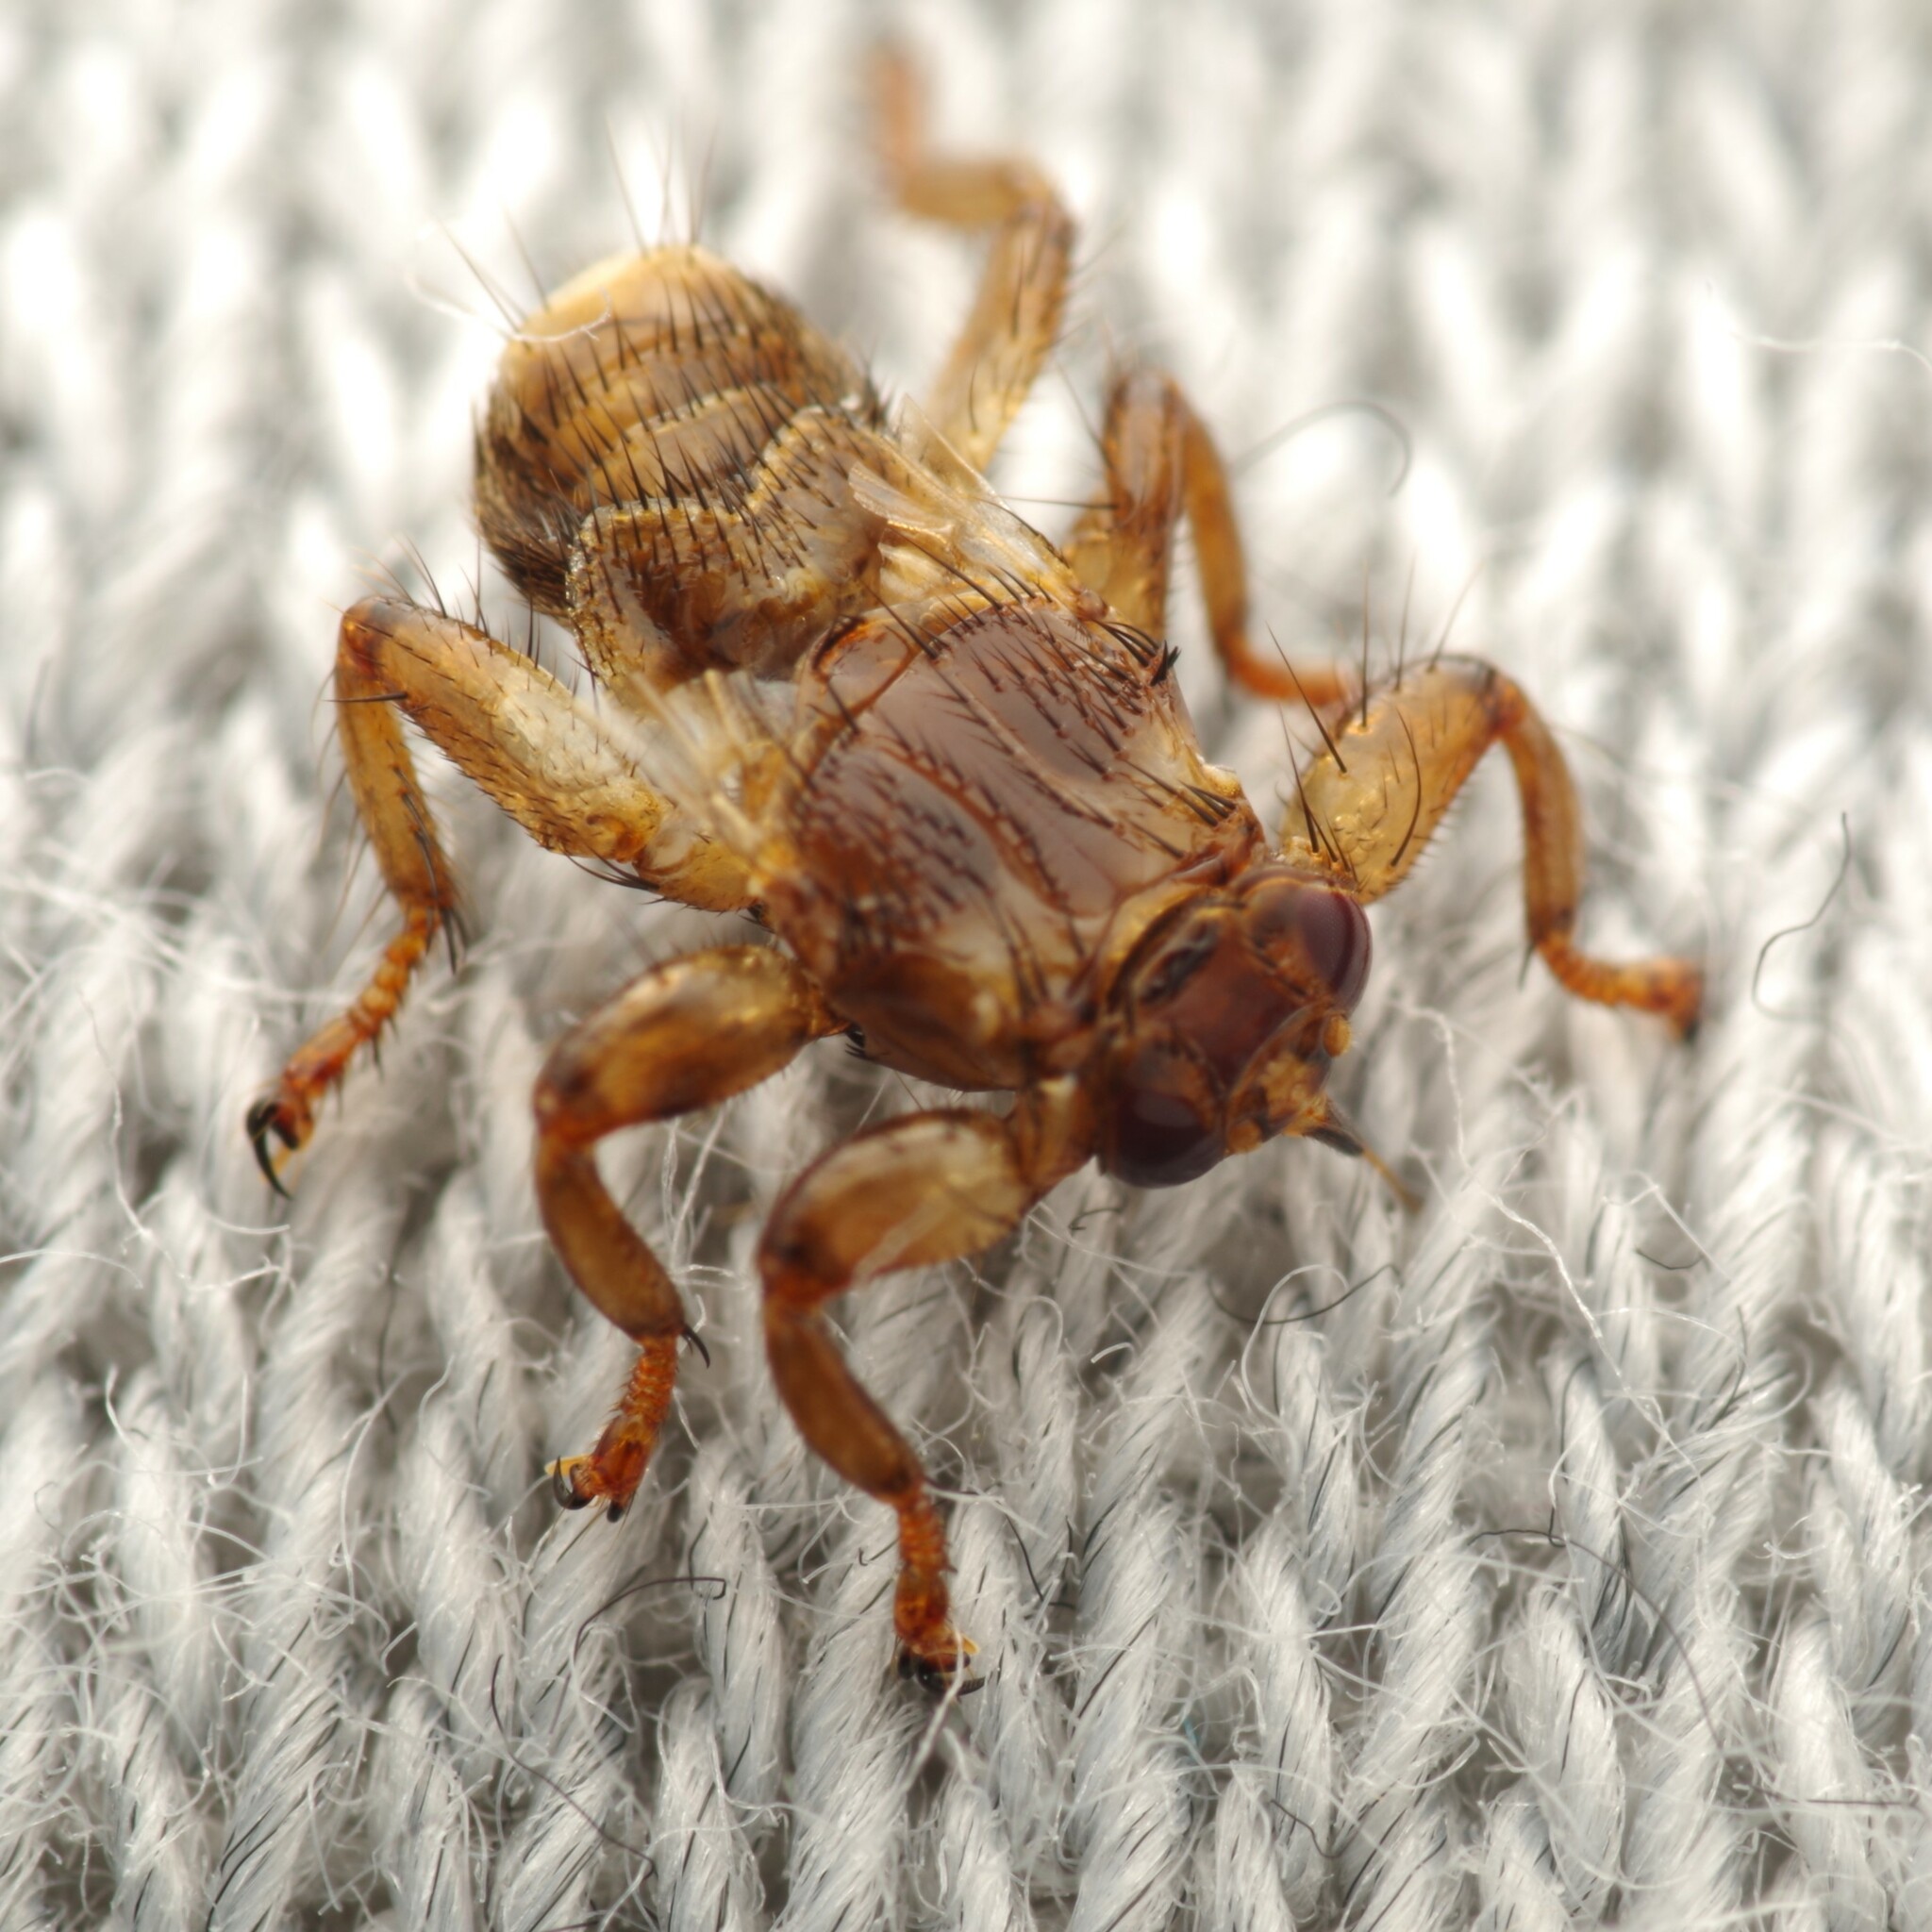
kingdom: Animalia
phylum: Arthropoda
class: Insecta
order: Diptera
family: Hippoboscidae
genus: Lipoptena
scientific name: Lipoptena cervi
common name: Deer ked
